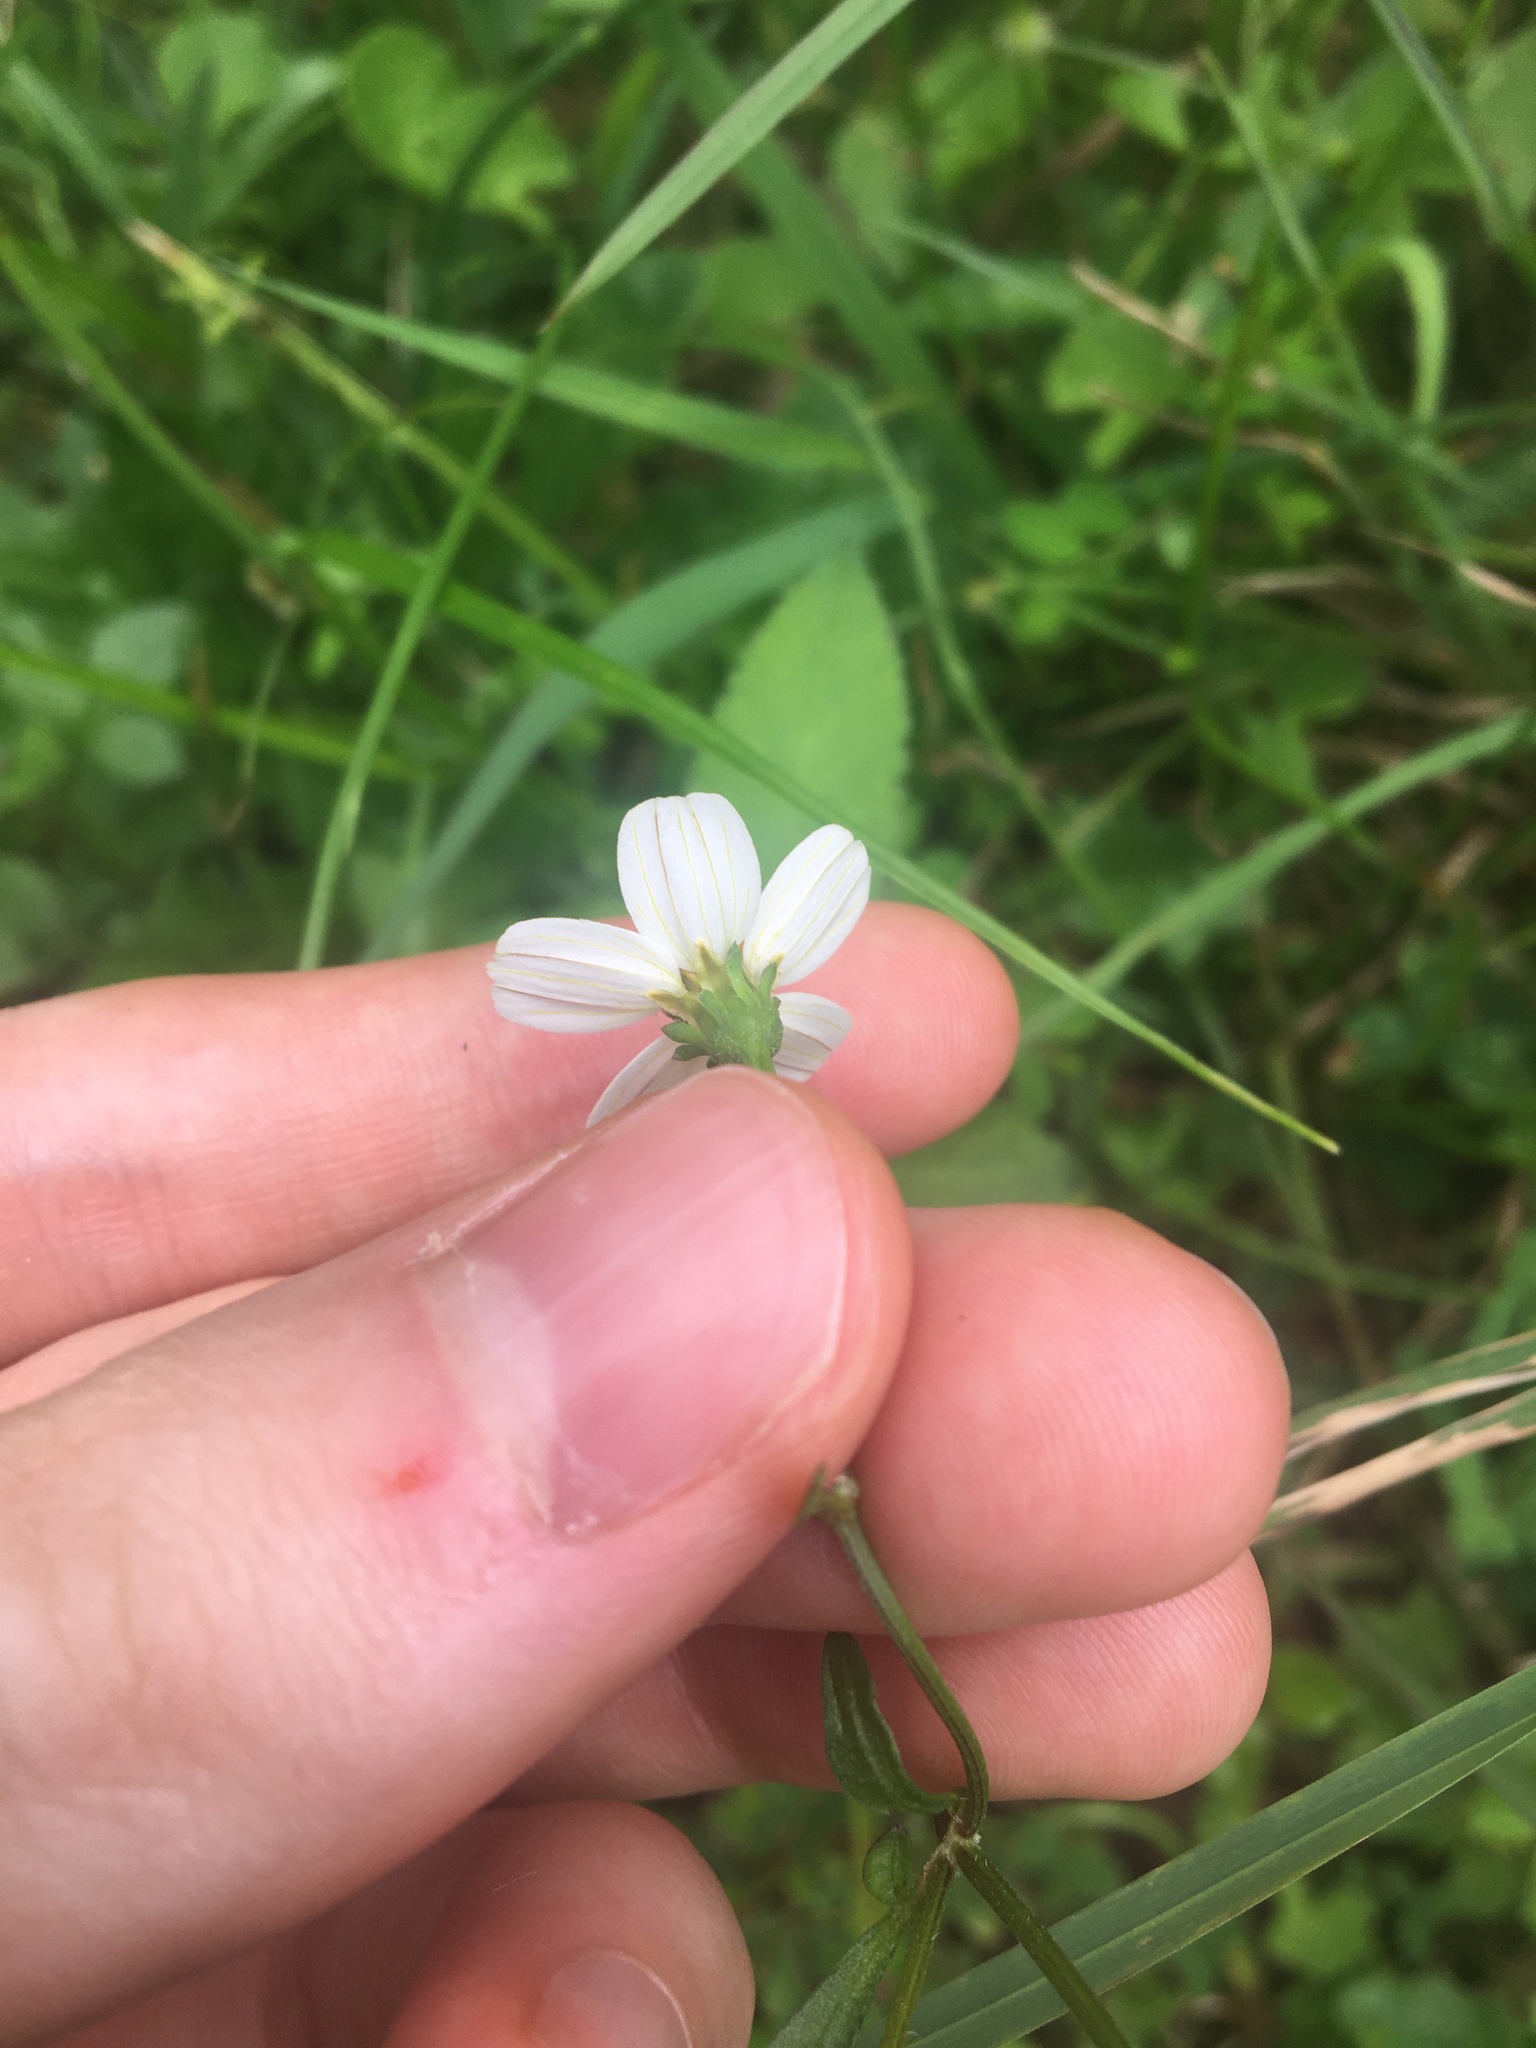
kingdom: Plantae
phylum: Tracheophyta
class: Magnoliopsida
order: Asterales
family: Asteraceae
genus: Bidens
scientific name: Bidens alba
